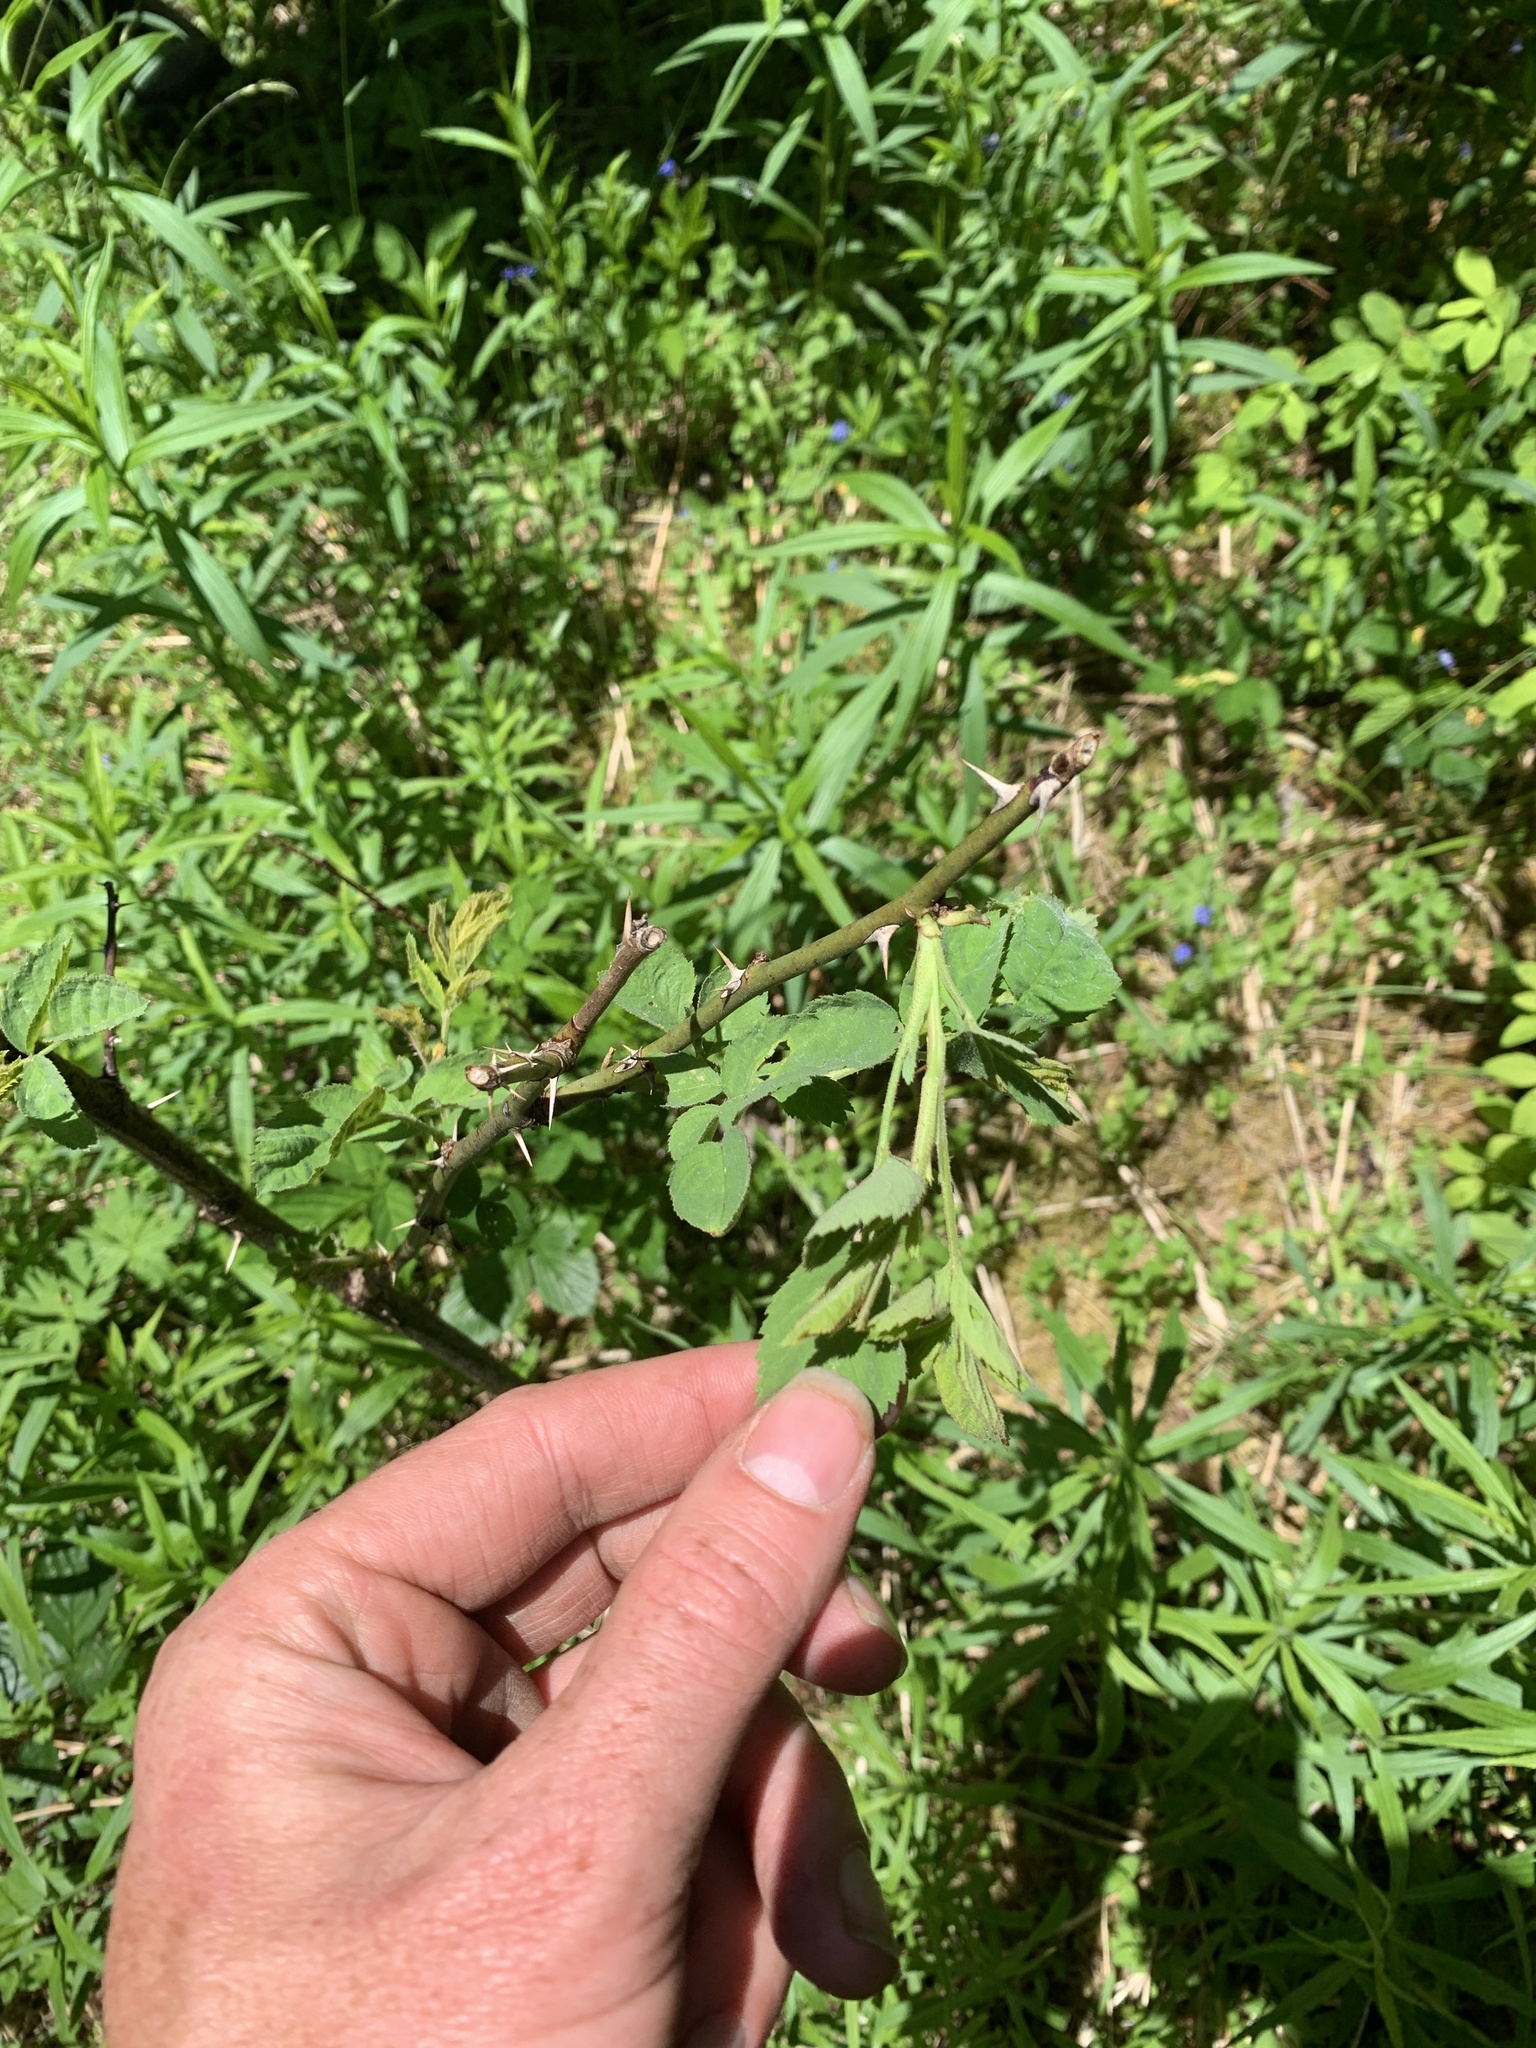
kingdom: Plantae
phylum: Tracheophyta
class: Magnoliopsida
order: Rosales
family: Rosaceae
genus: Rosa
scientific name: Rosa multiflora
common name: Multiflora rose
